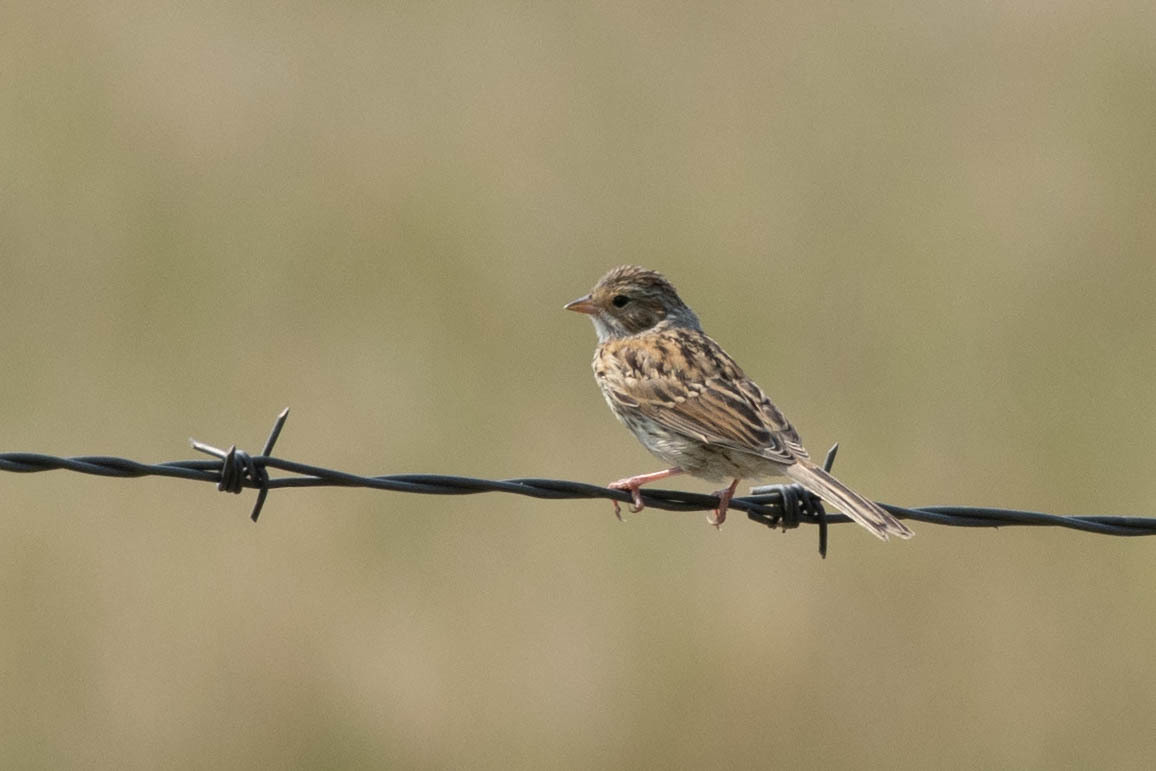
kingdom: Animalia
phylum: Chordata
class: Aves
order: Passeriformes
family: Passerellidae
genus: Spizella
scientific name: Spizella pallida
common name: Clay-colored sparrow
